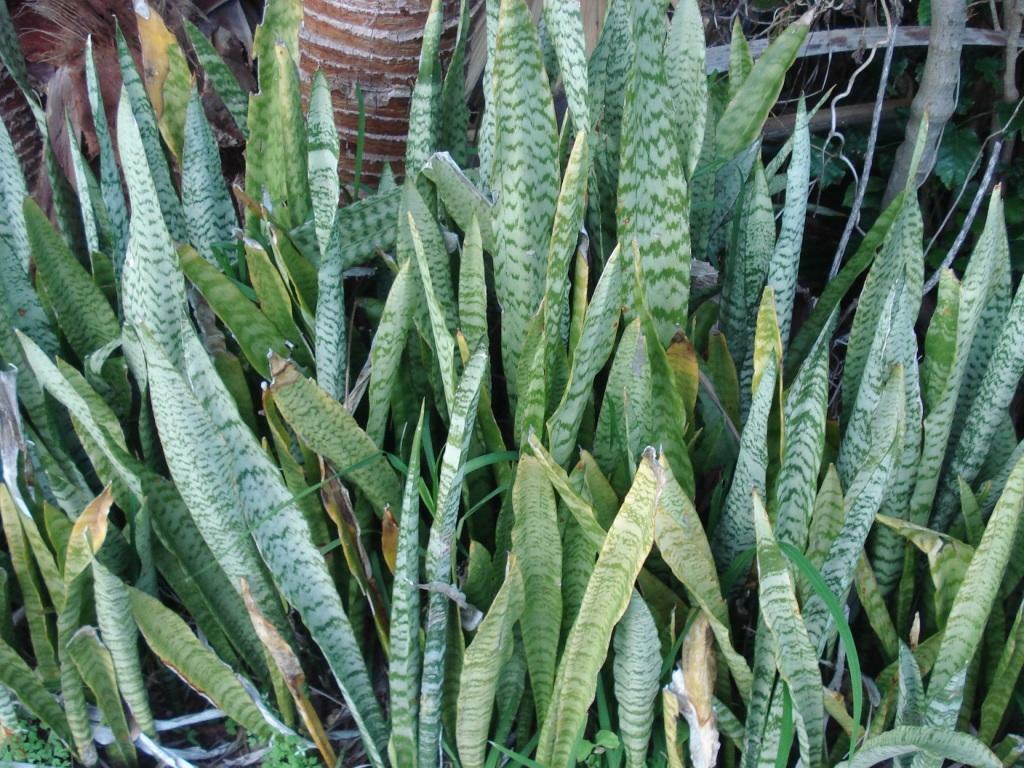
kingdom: Plantae
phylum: Tracheophyta
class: Liliopsida
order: Asparagales
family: Asparagaceae
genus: Dracaena
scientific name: Dracaena trifasciata
